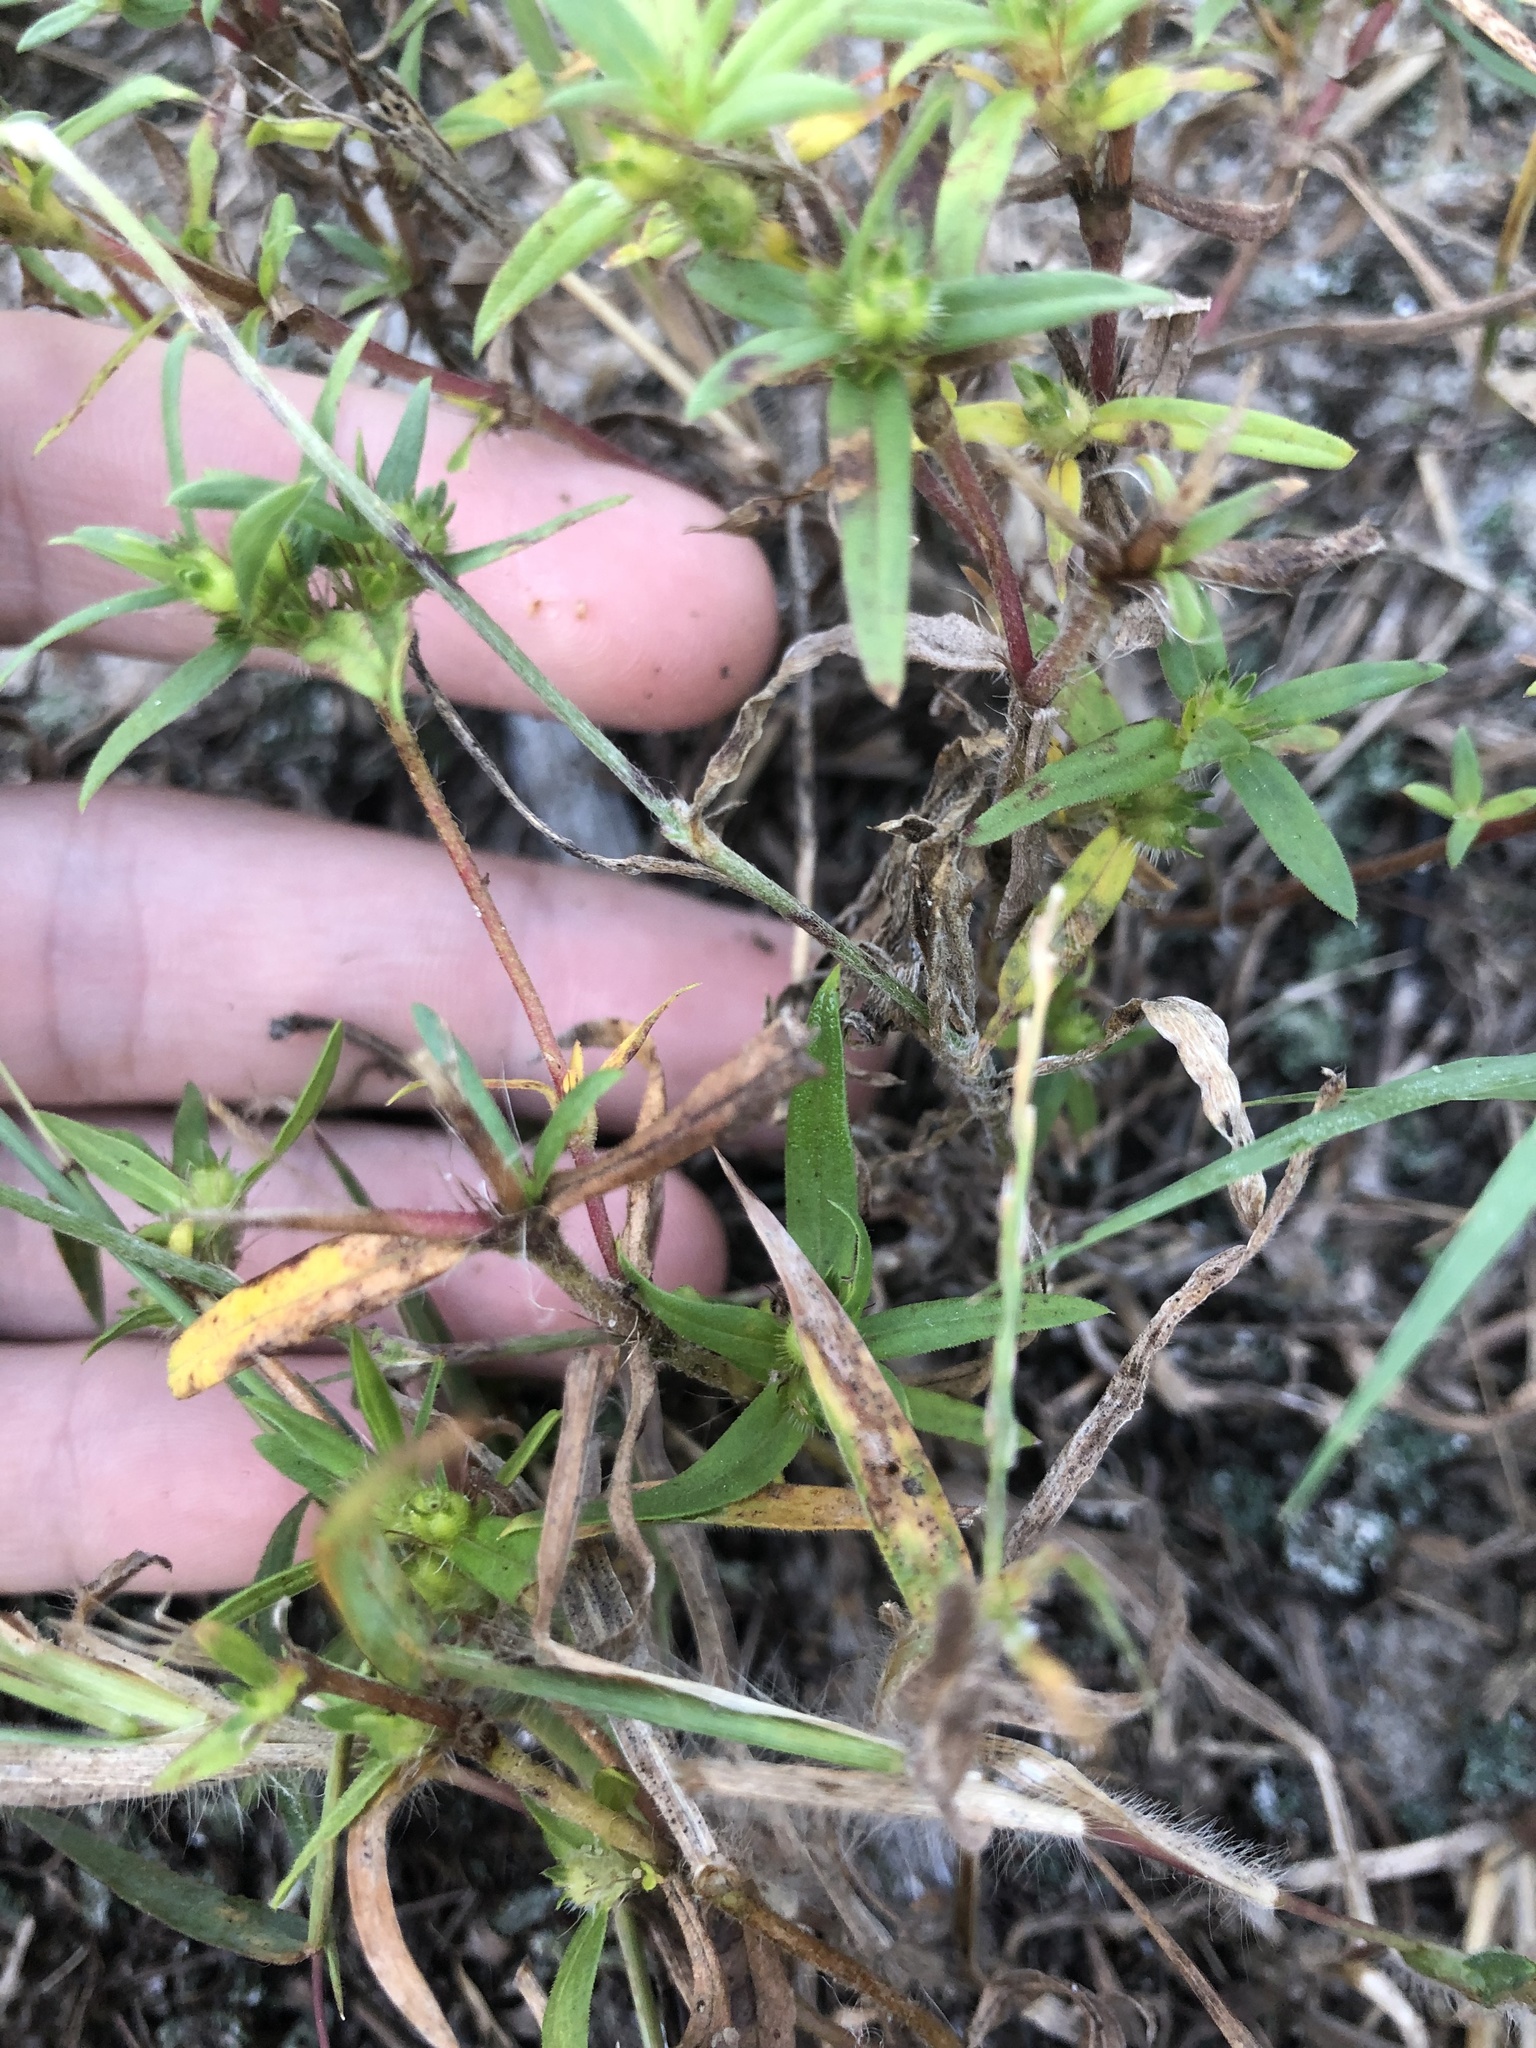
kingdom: Plantae
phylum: Tracheophyta
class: Magnoliopsida
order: Caryophyllales
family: Amaranthaceae
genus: Froelichia
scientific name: Froelichia floridana
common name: Florida snake-cotton
